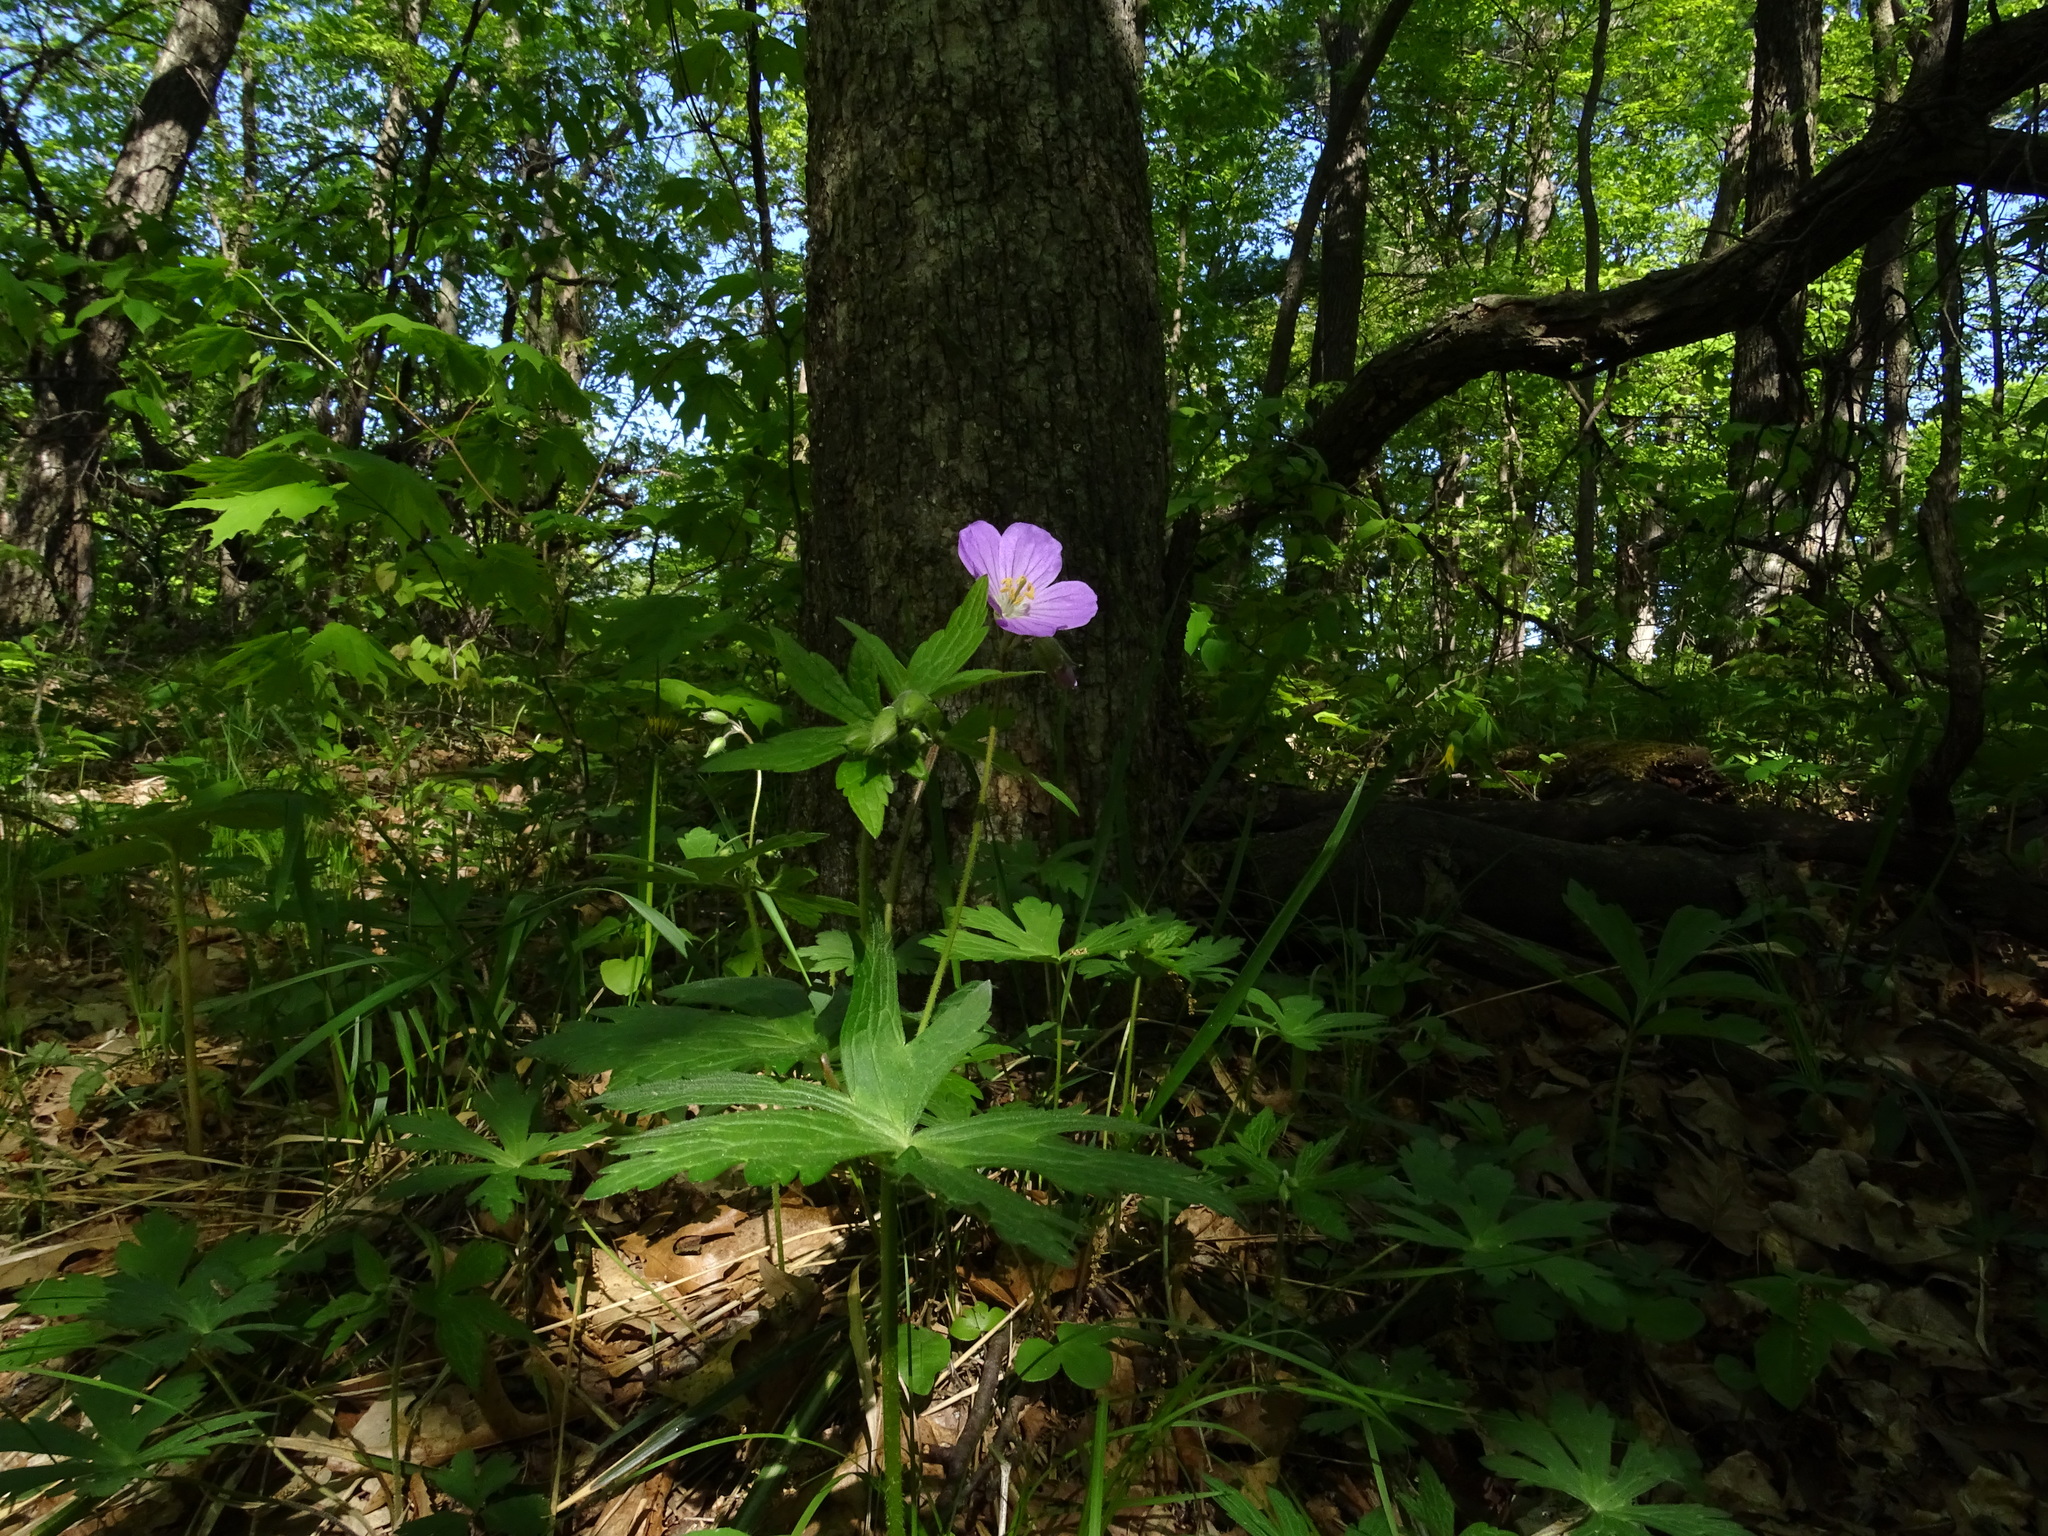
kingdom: Plantae
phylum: Tracheophyta
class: Magnoliopsida
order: Geraniales
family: Geraniaceae
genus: Geranium
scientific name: Geranium maculatum
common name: Spotted geranium
